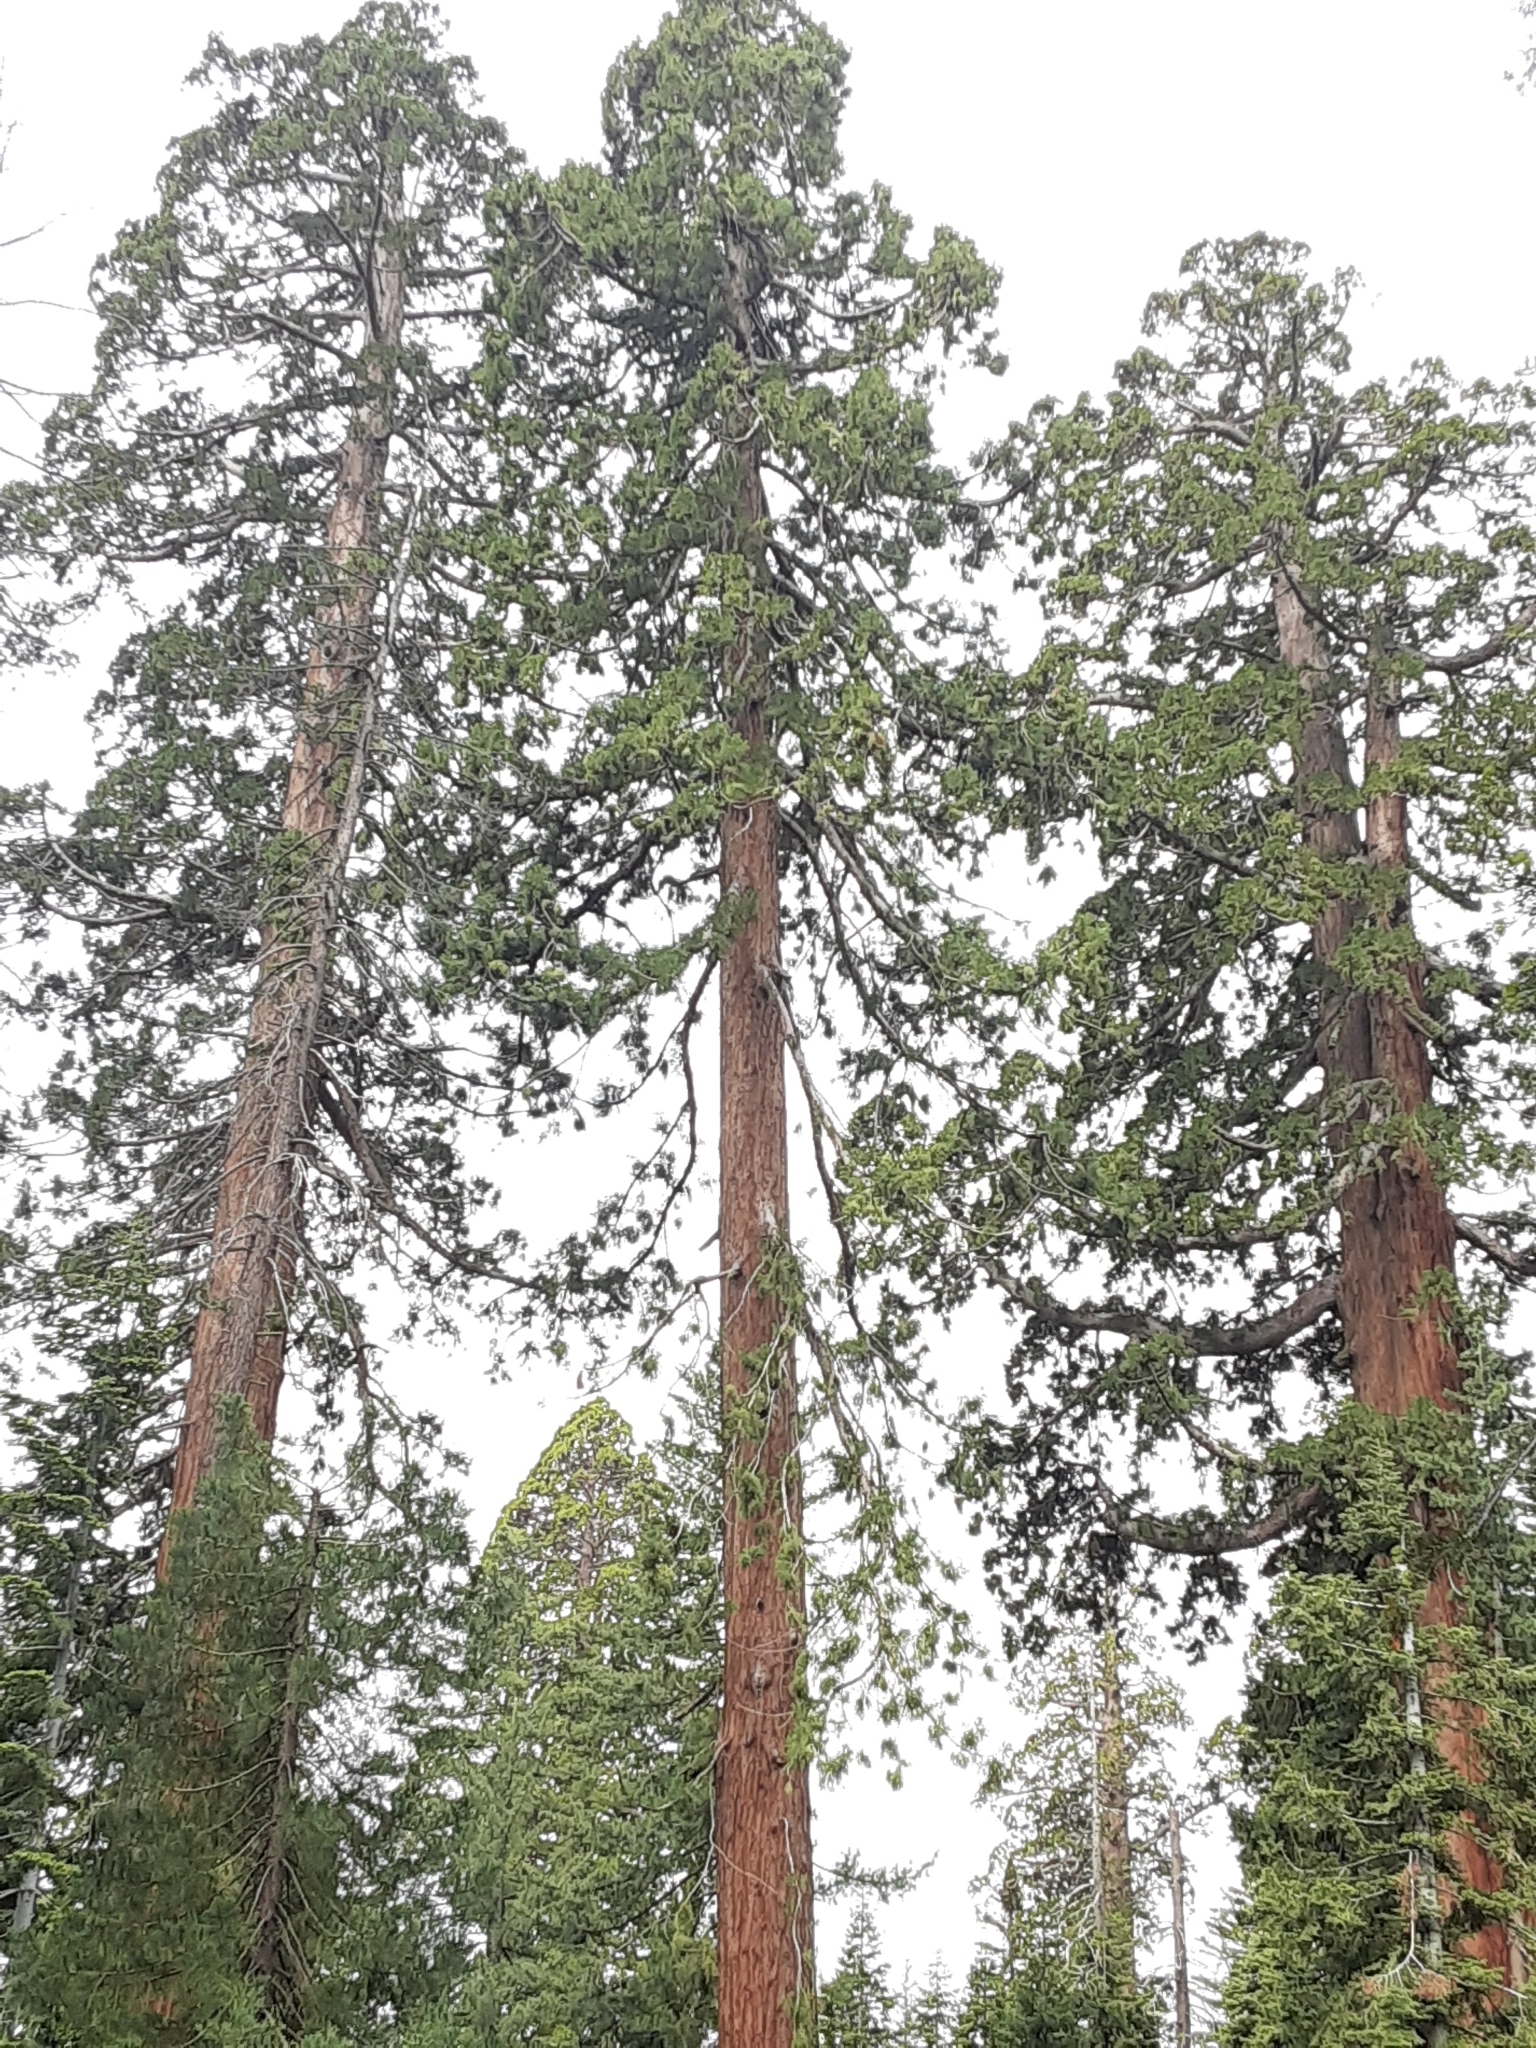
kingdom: Plantae
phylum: Tracheophyta
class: Pinopsida
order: Pinales
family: Cupressaceae
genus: Sequoiadendron
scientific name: Sequoiadendron giganteum
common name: Wellingtonia
